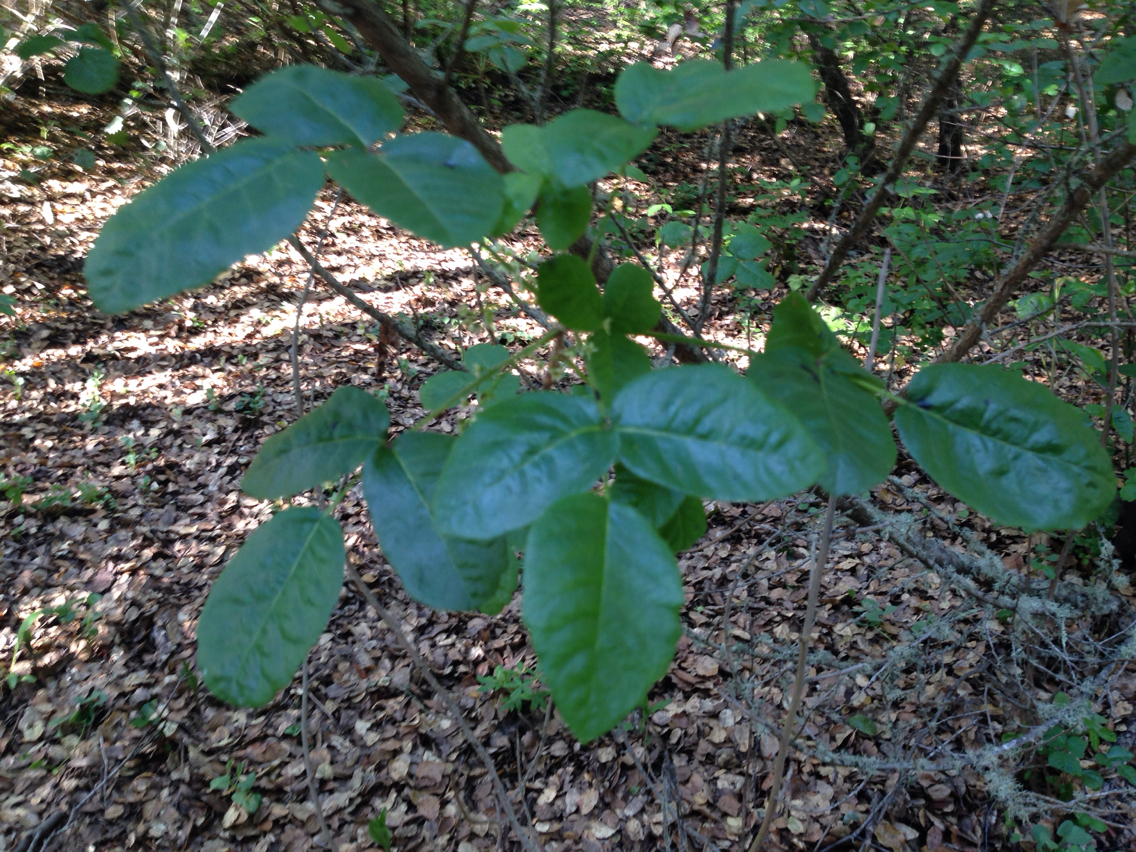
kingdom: Plantae
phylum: Tracheophyta
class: Magnoliopsida
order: Sapindales
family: Anacardiaceae
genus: Toxicodendron
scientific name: Toxicodendron diversilobum
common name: Pacific poison-oak
